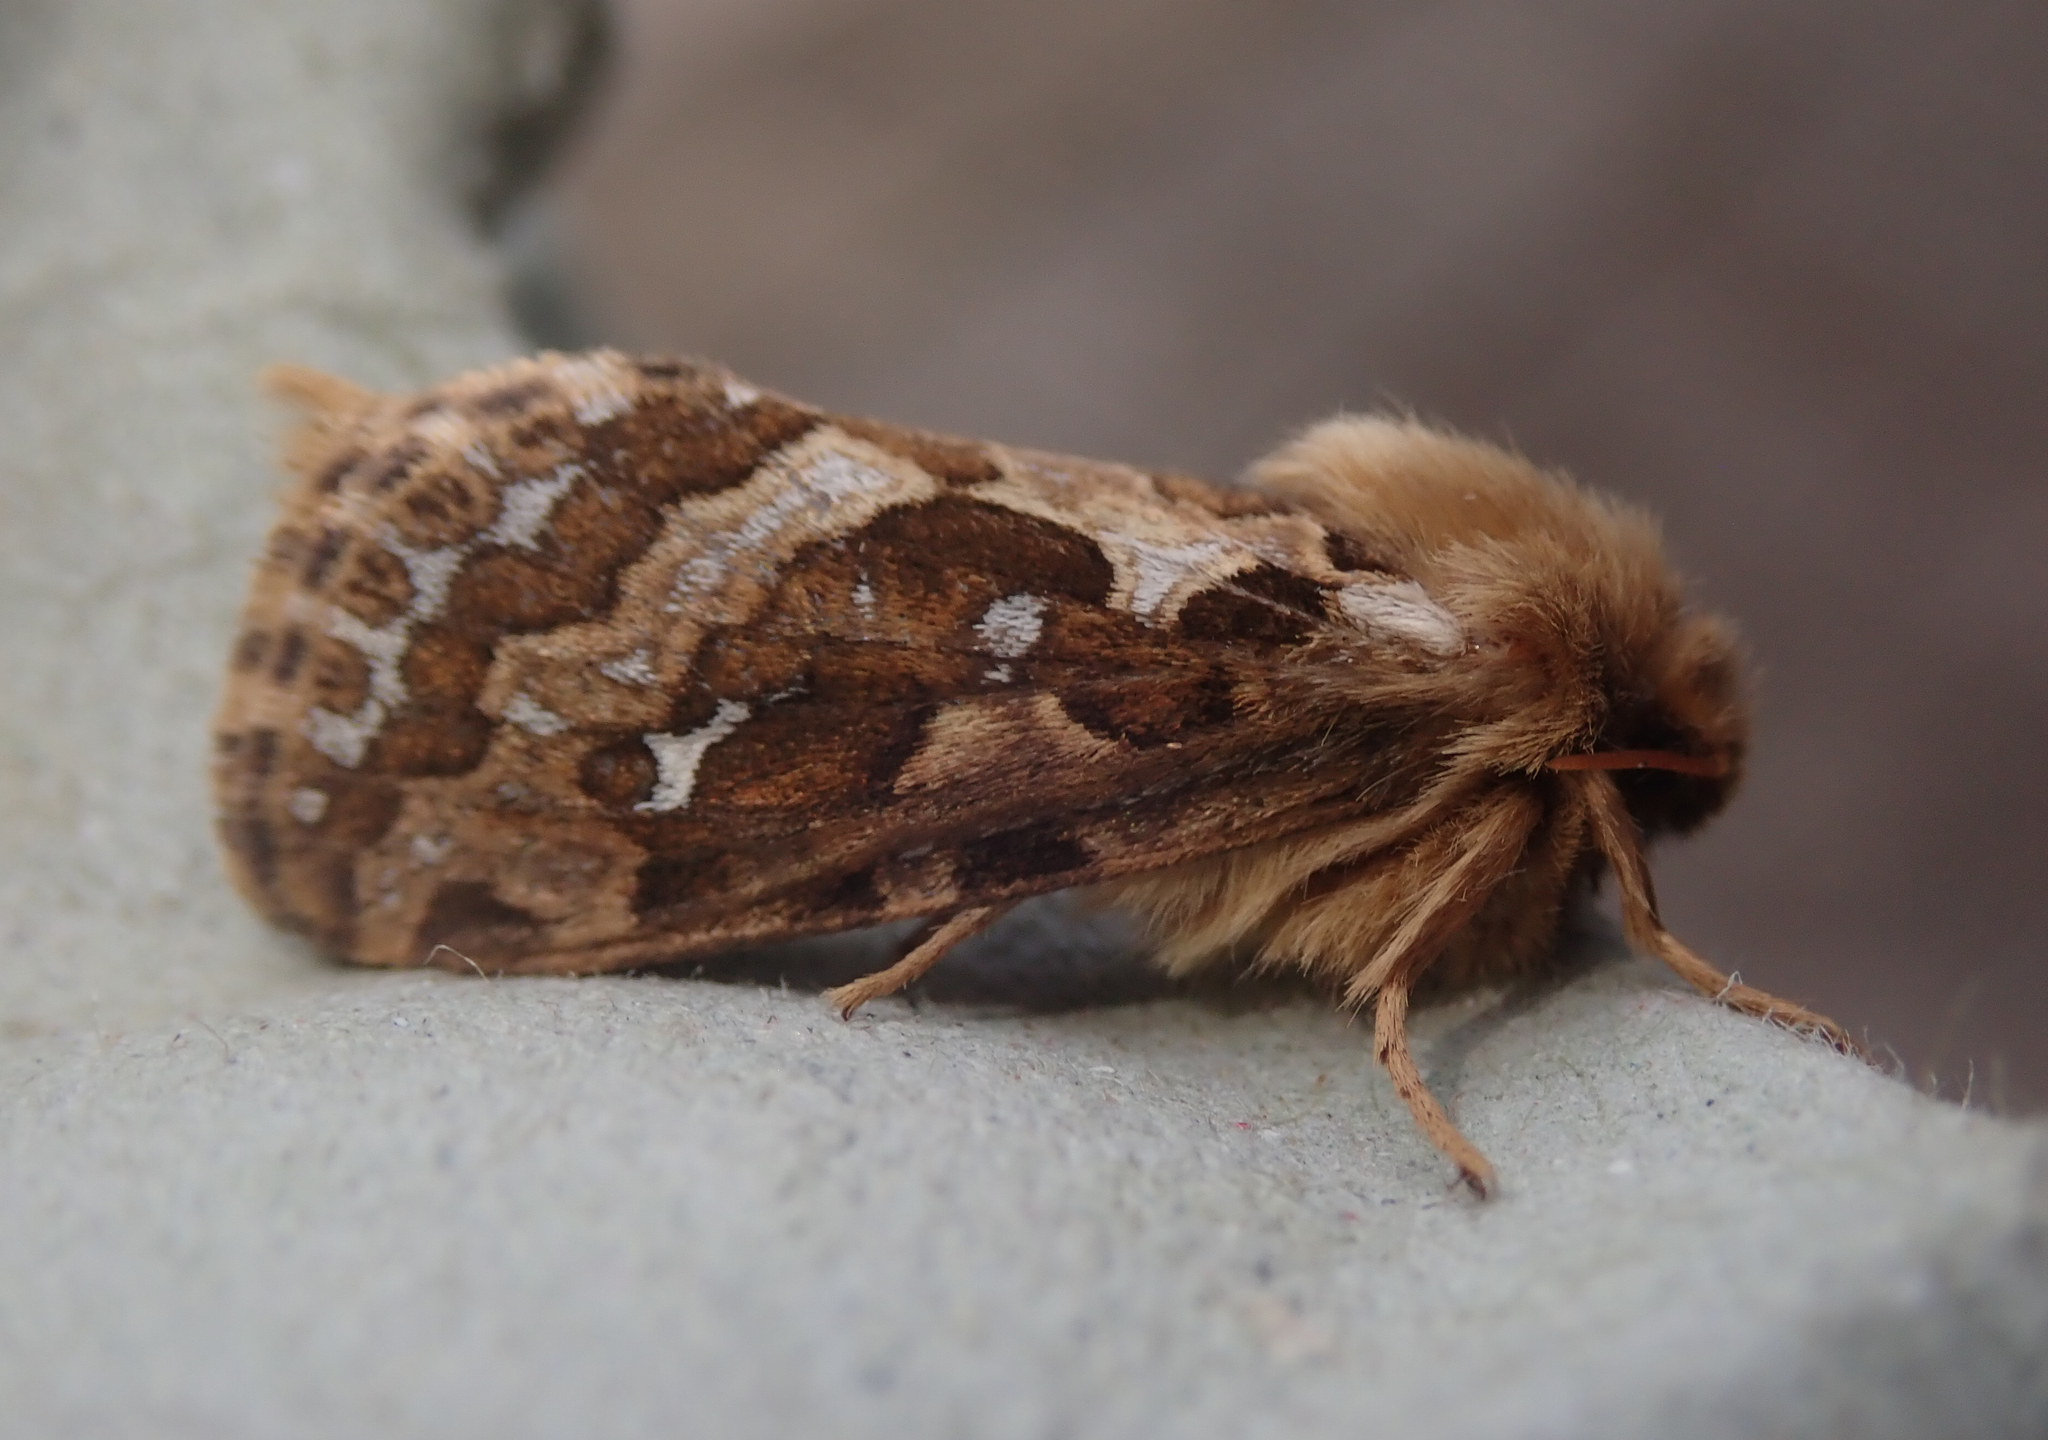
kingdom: Animalia
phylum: Arthropoda
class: Insecta
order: Lepidoptera
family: Hepialidae
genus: Korscheltellus
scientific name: Korscheltellus fusconebulosus
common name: Map-winged swift
